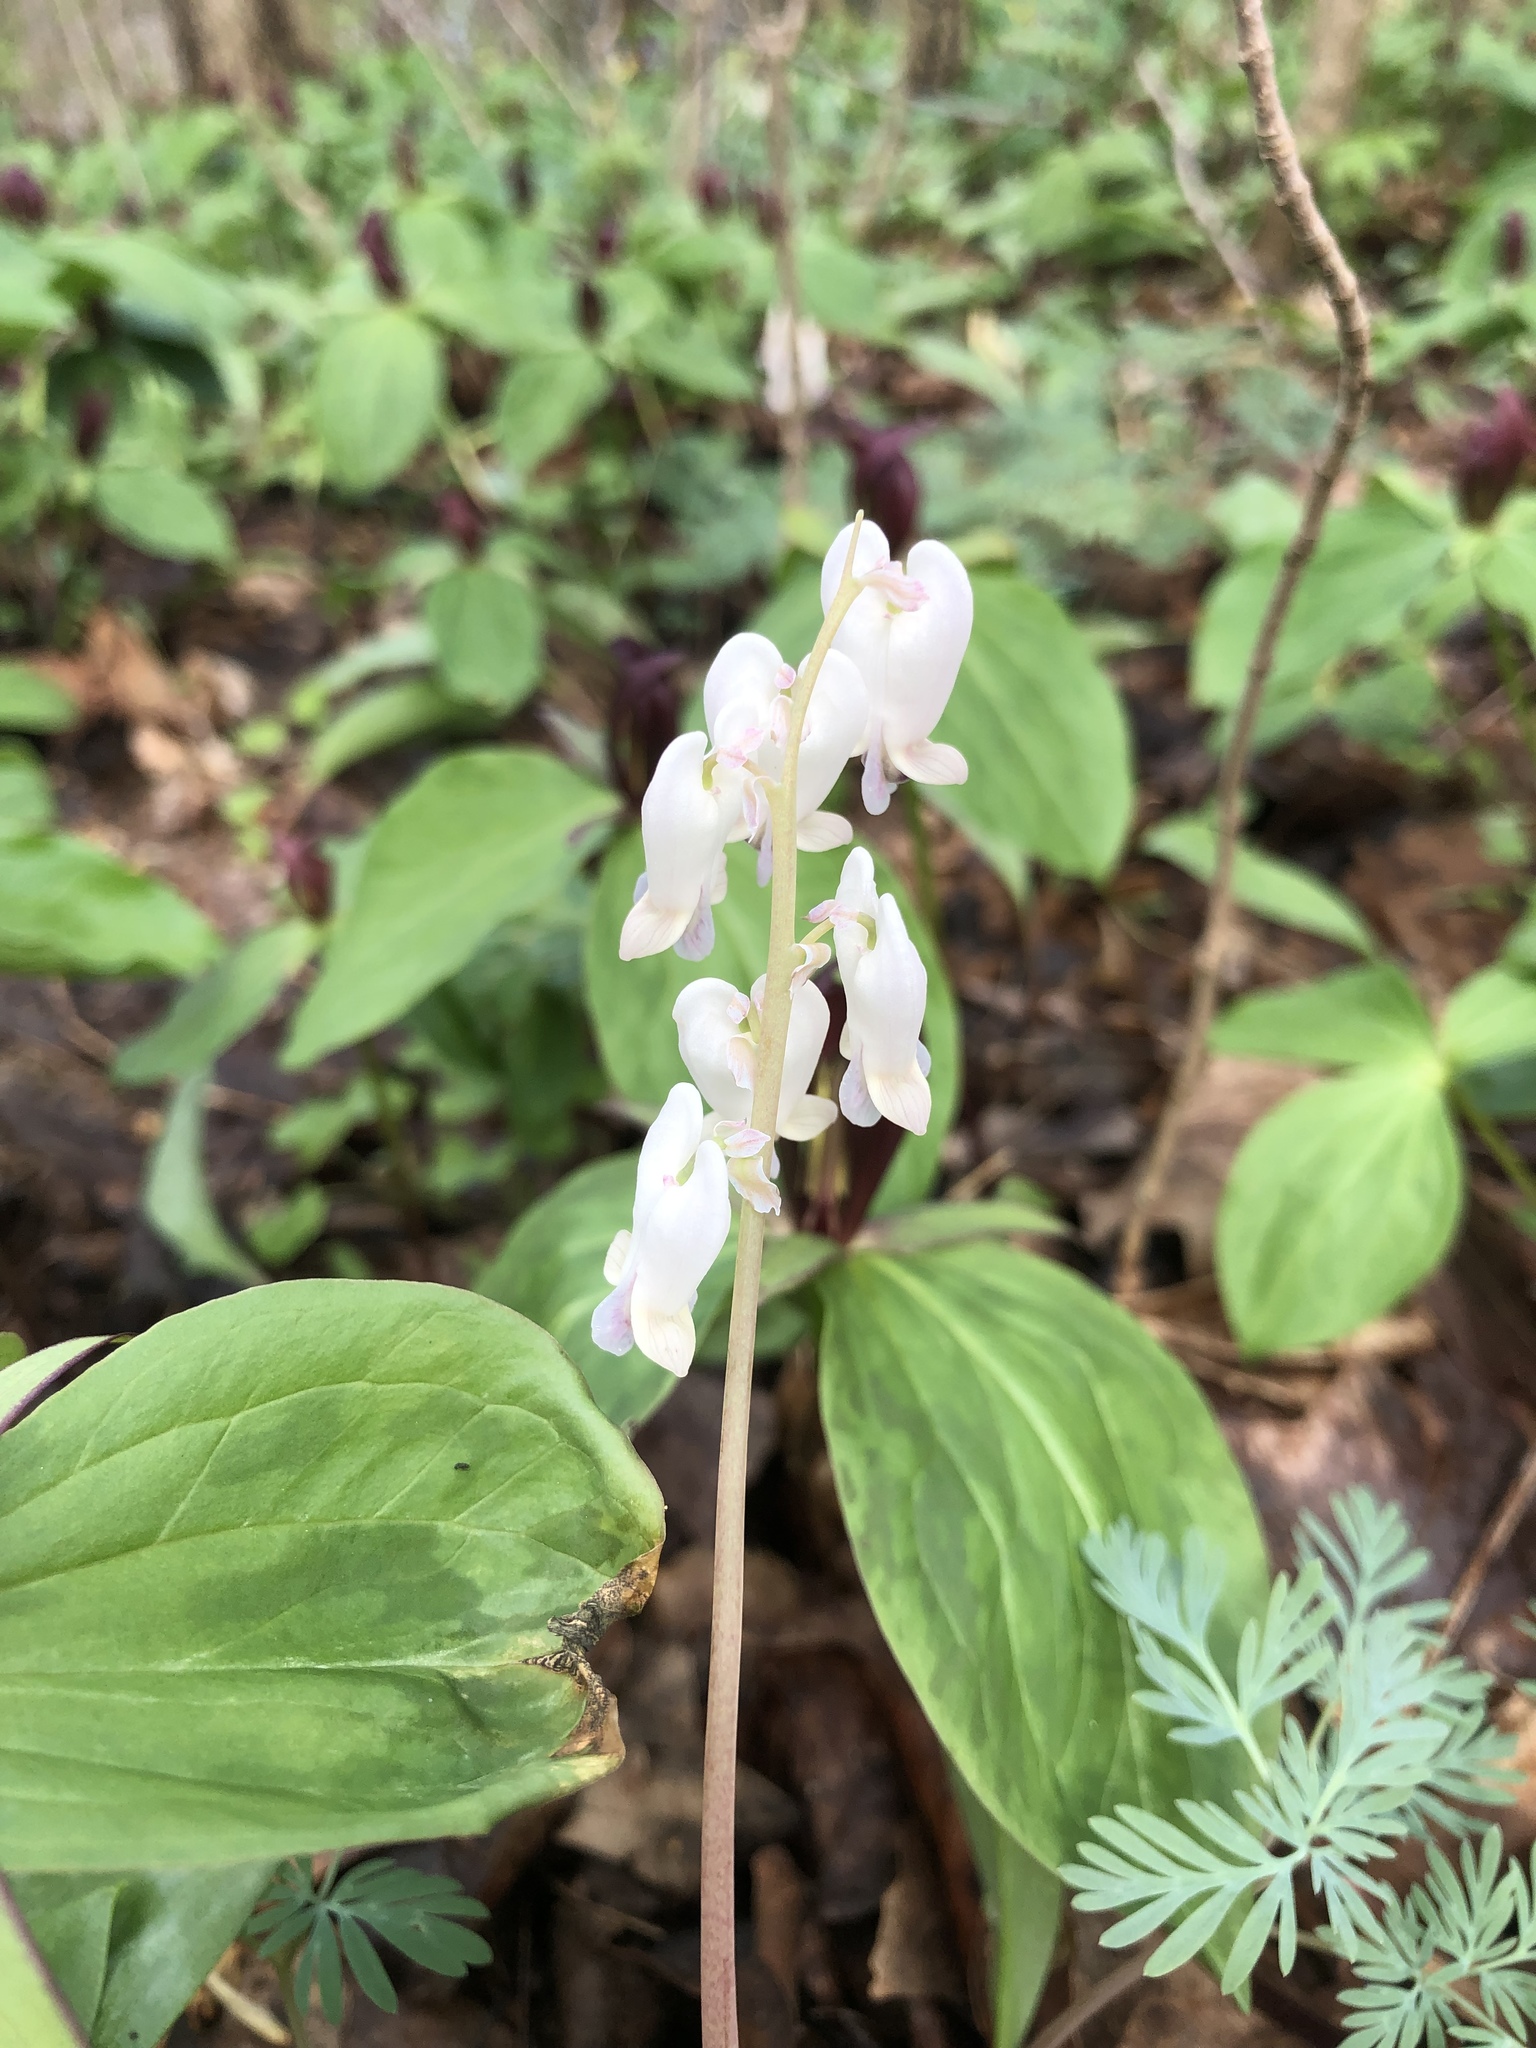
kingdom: Plantae
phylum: Tracheophyta
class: Magnoliopsida
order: Ranunculales
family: Papaveraceae
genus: Dicentra
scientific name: Dicentra canadensis
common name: Squirrel-corn
